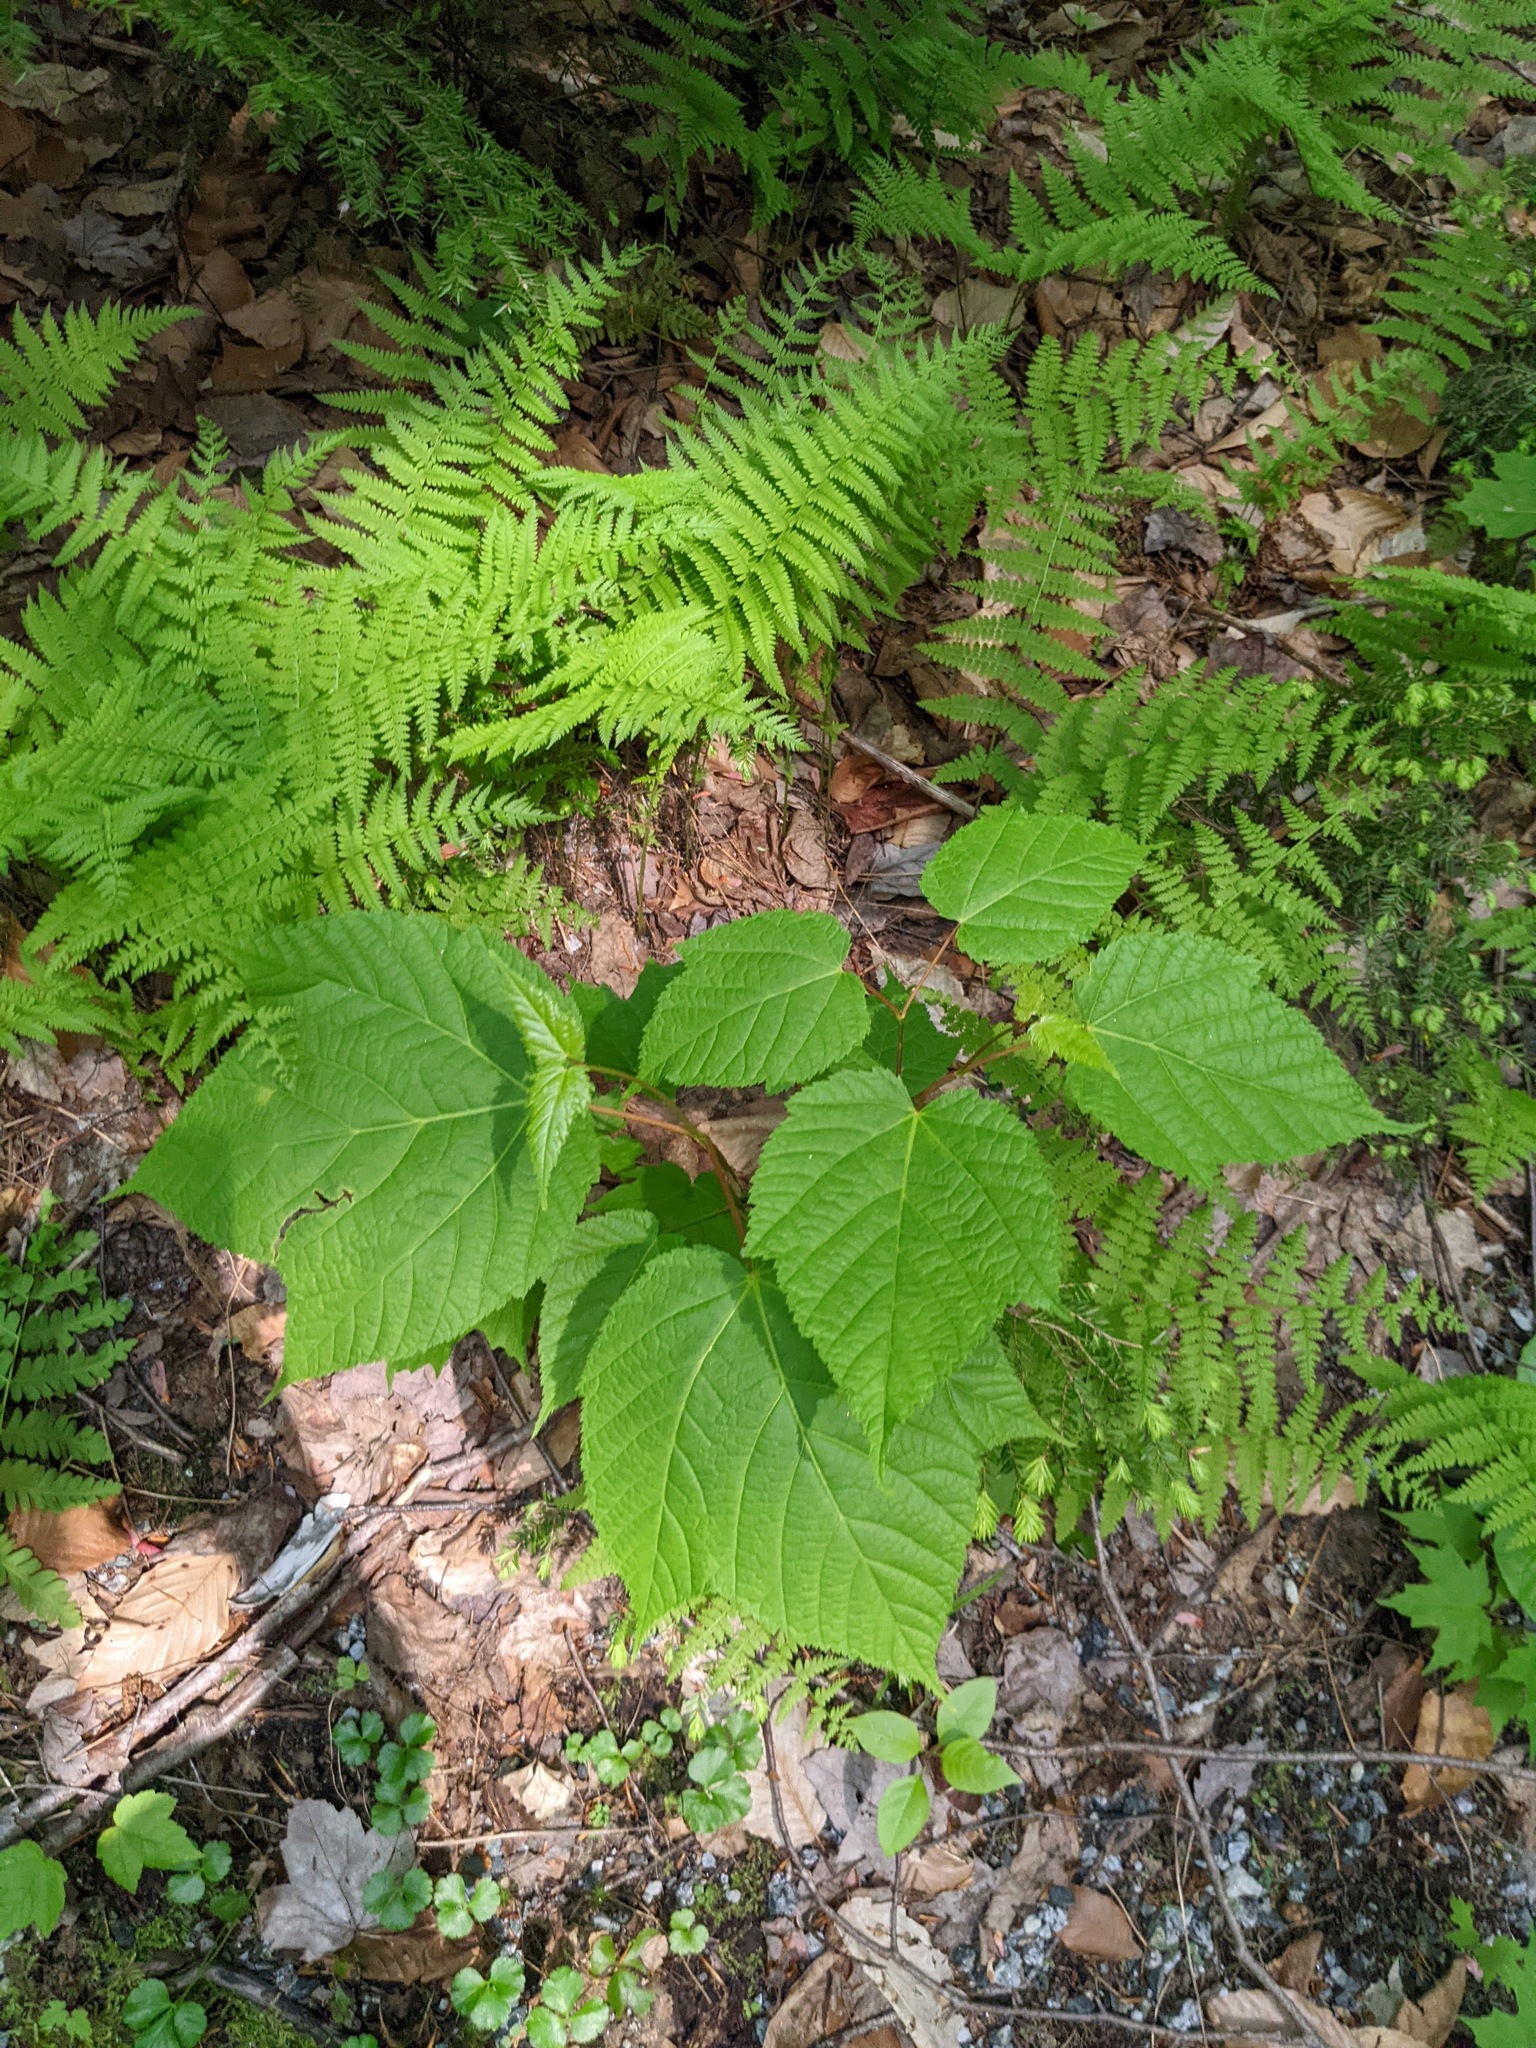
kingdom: Plantae
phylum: Tracheophyta
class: Magnoliopsida
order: Sapindales
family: Sapindaceae
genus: Acer
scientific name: Acer pensylvanicum
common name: Moosewood
